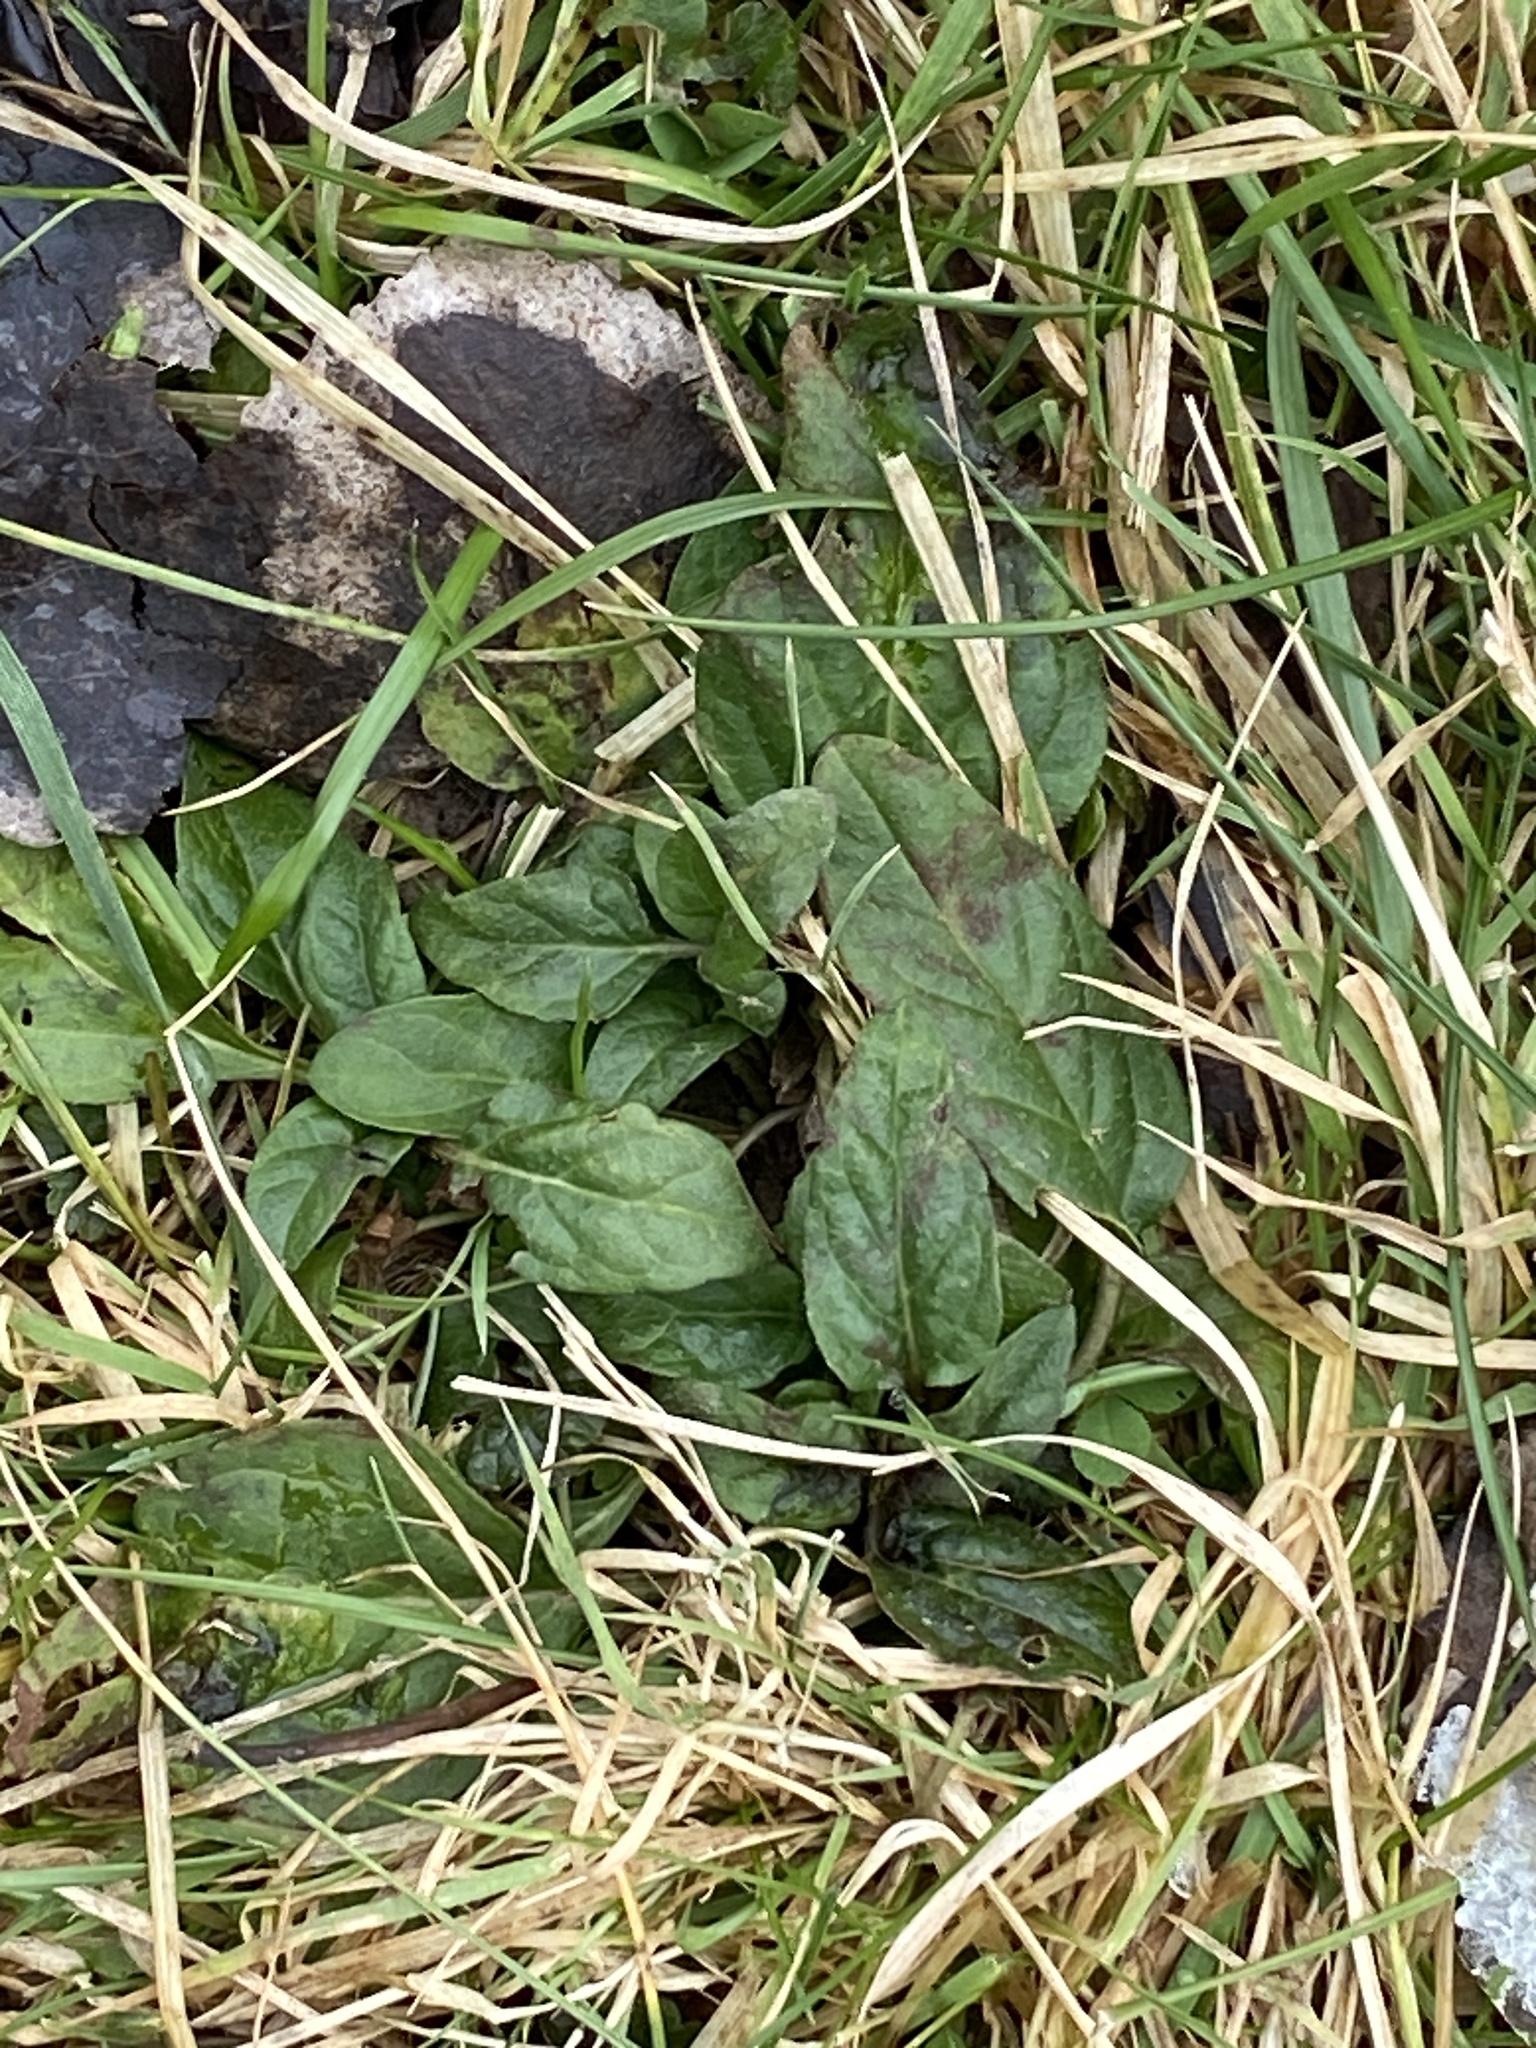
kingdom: Plantae
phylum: Tracheophyta
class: Magnoliopsida
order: Lamiales
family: Lamiaceae
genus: Prunella
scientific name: Prunella vulgaris
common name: Heal-all
